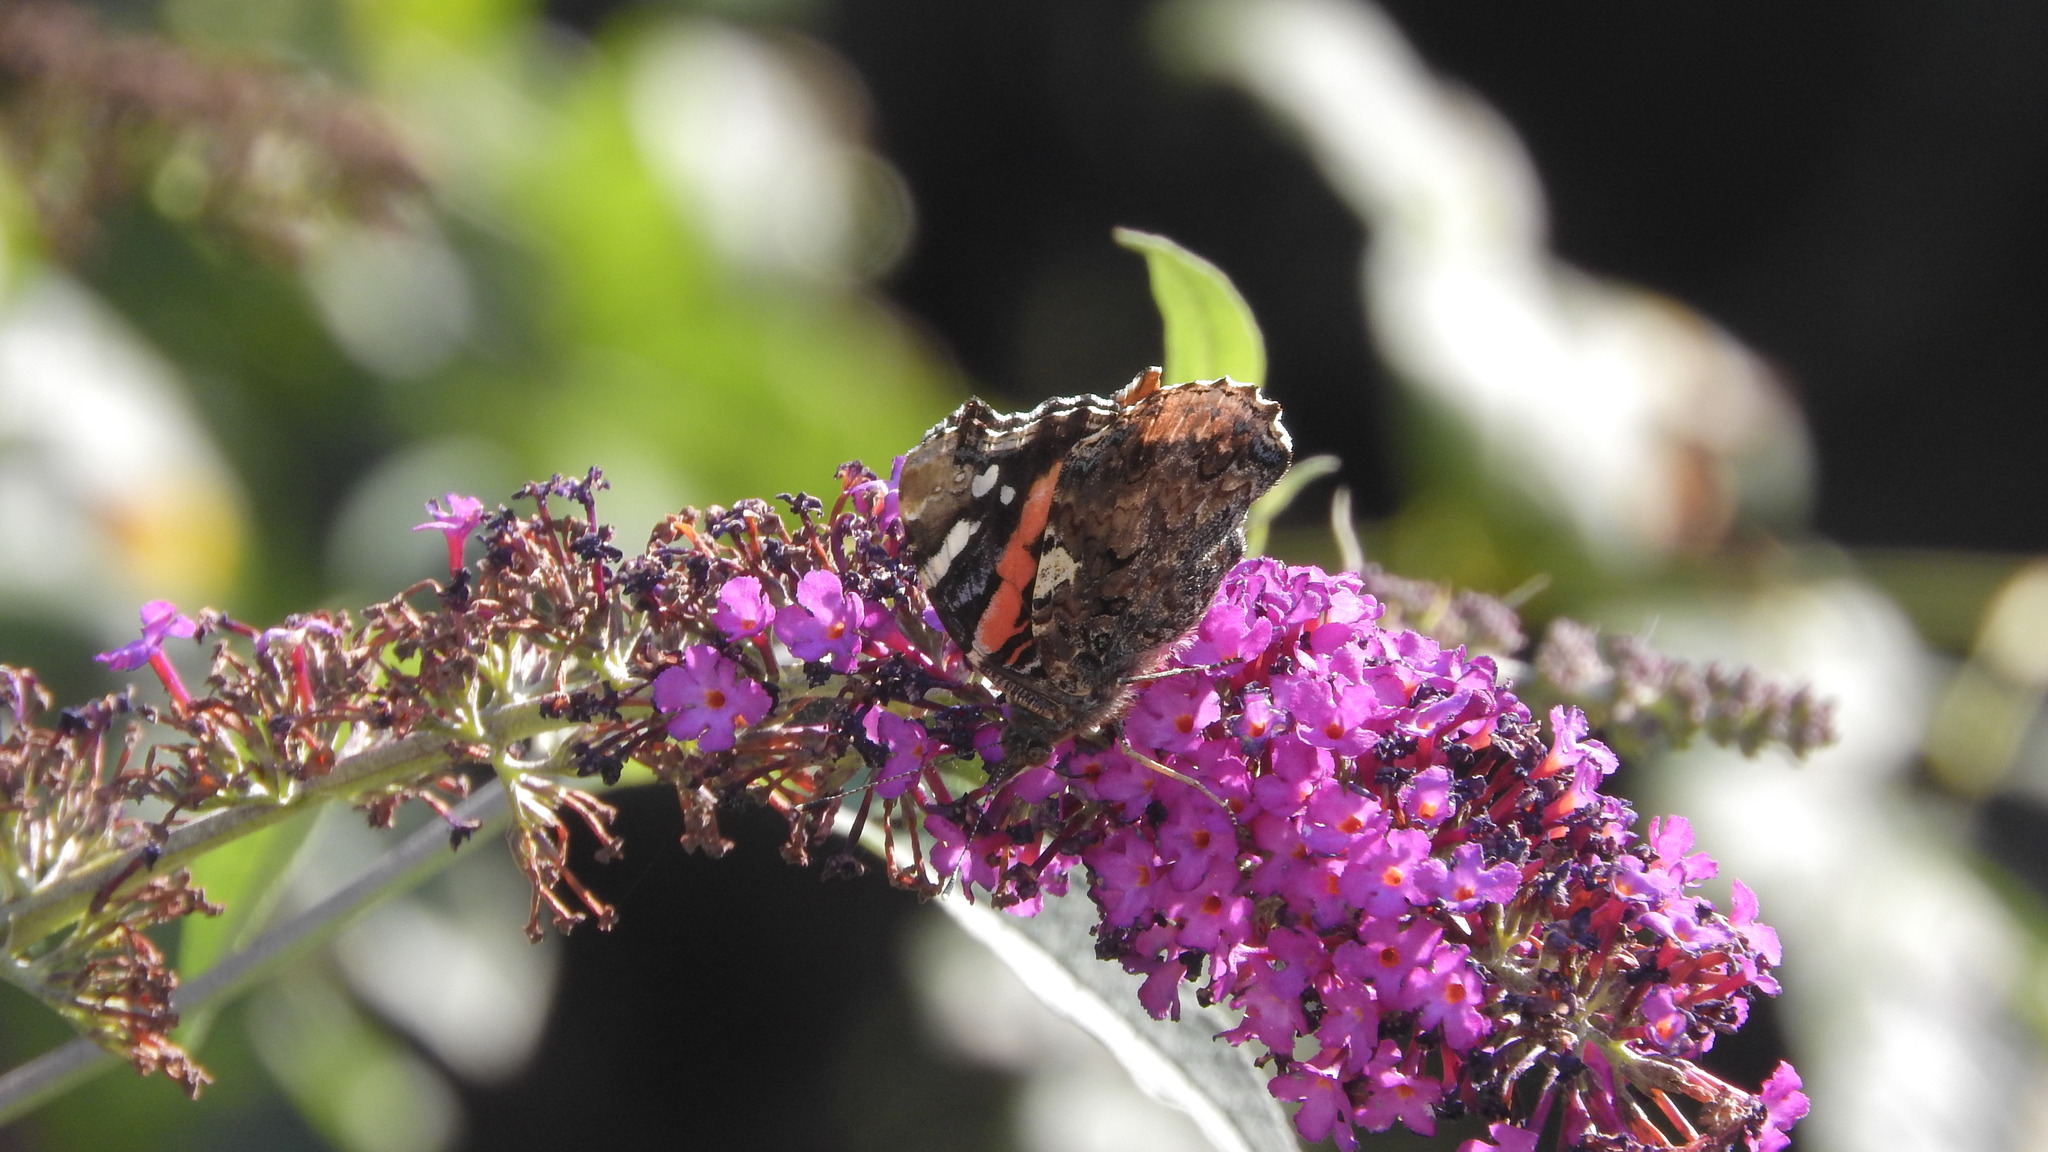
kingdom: Animalia
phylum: Arthropoda
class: Insecta
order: Lepidoptera
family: Nymphalidae
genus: Vanessa
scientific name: Vanessa atalanta
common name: Red admiral
